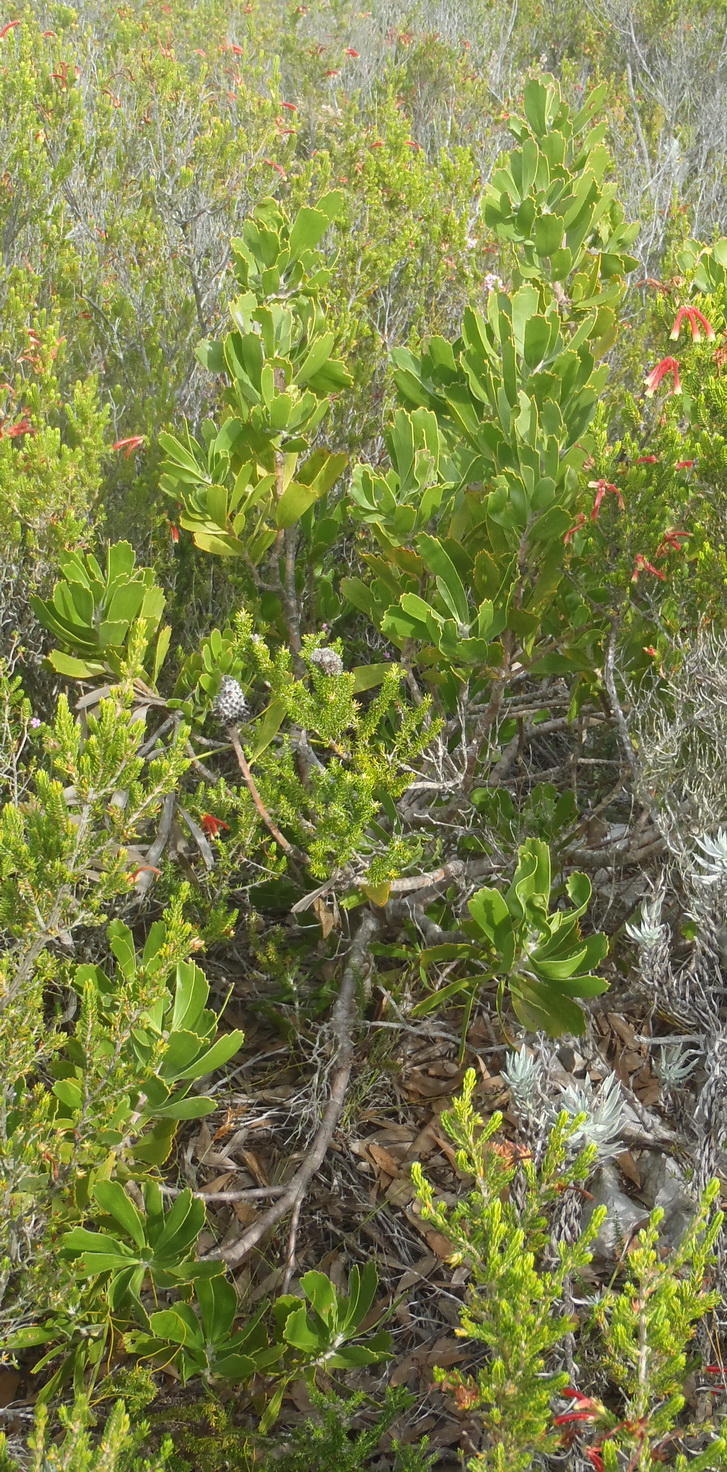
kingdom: Plantae
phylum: Tracheophyta
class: Magnoliopsida
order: Proteales
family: Proteaceae
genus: Leucospermum
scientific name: Leucospermum cuneiforme
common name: Common pincushion
